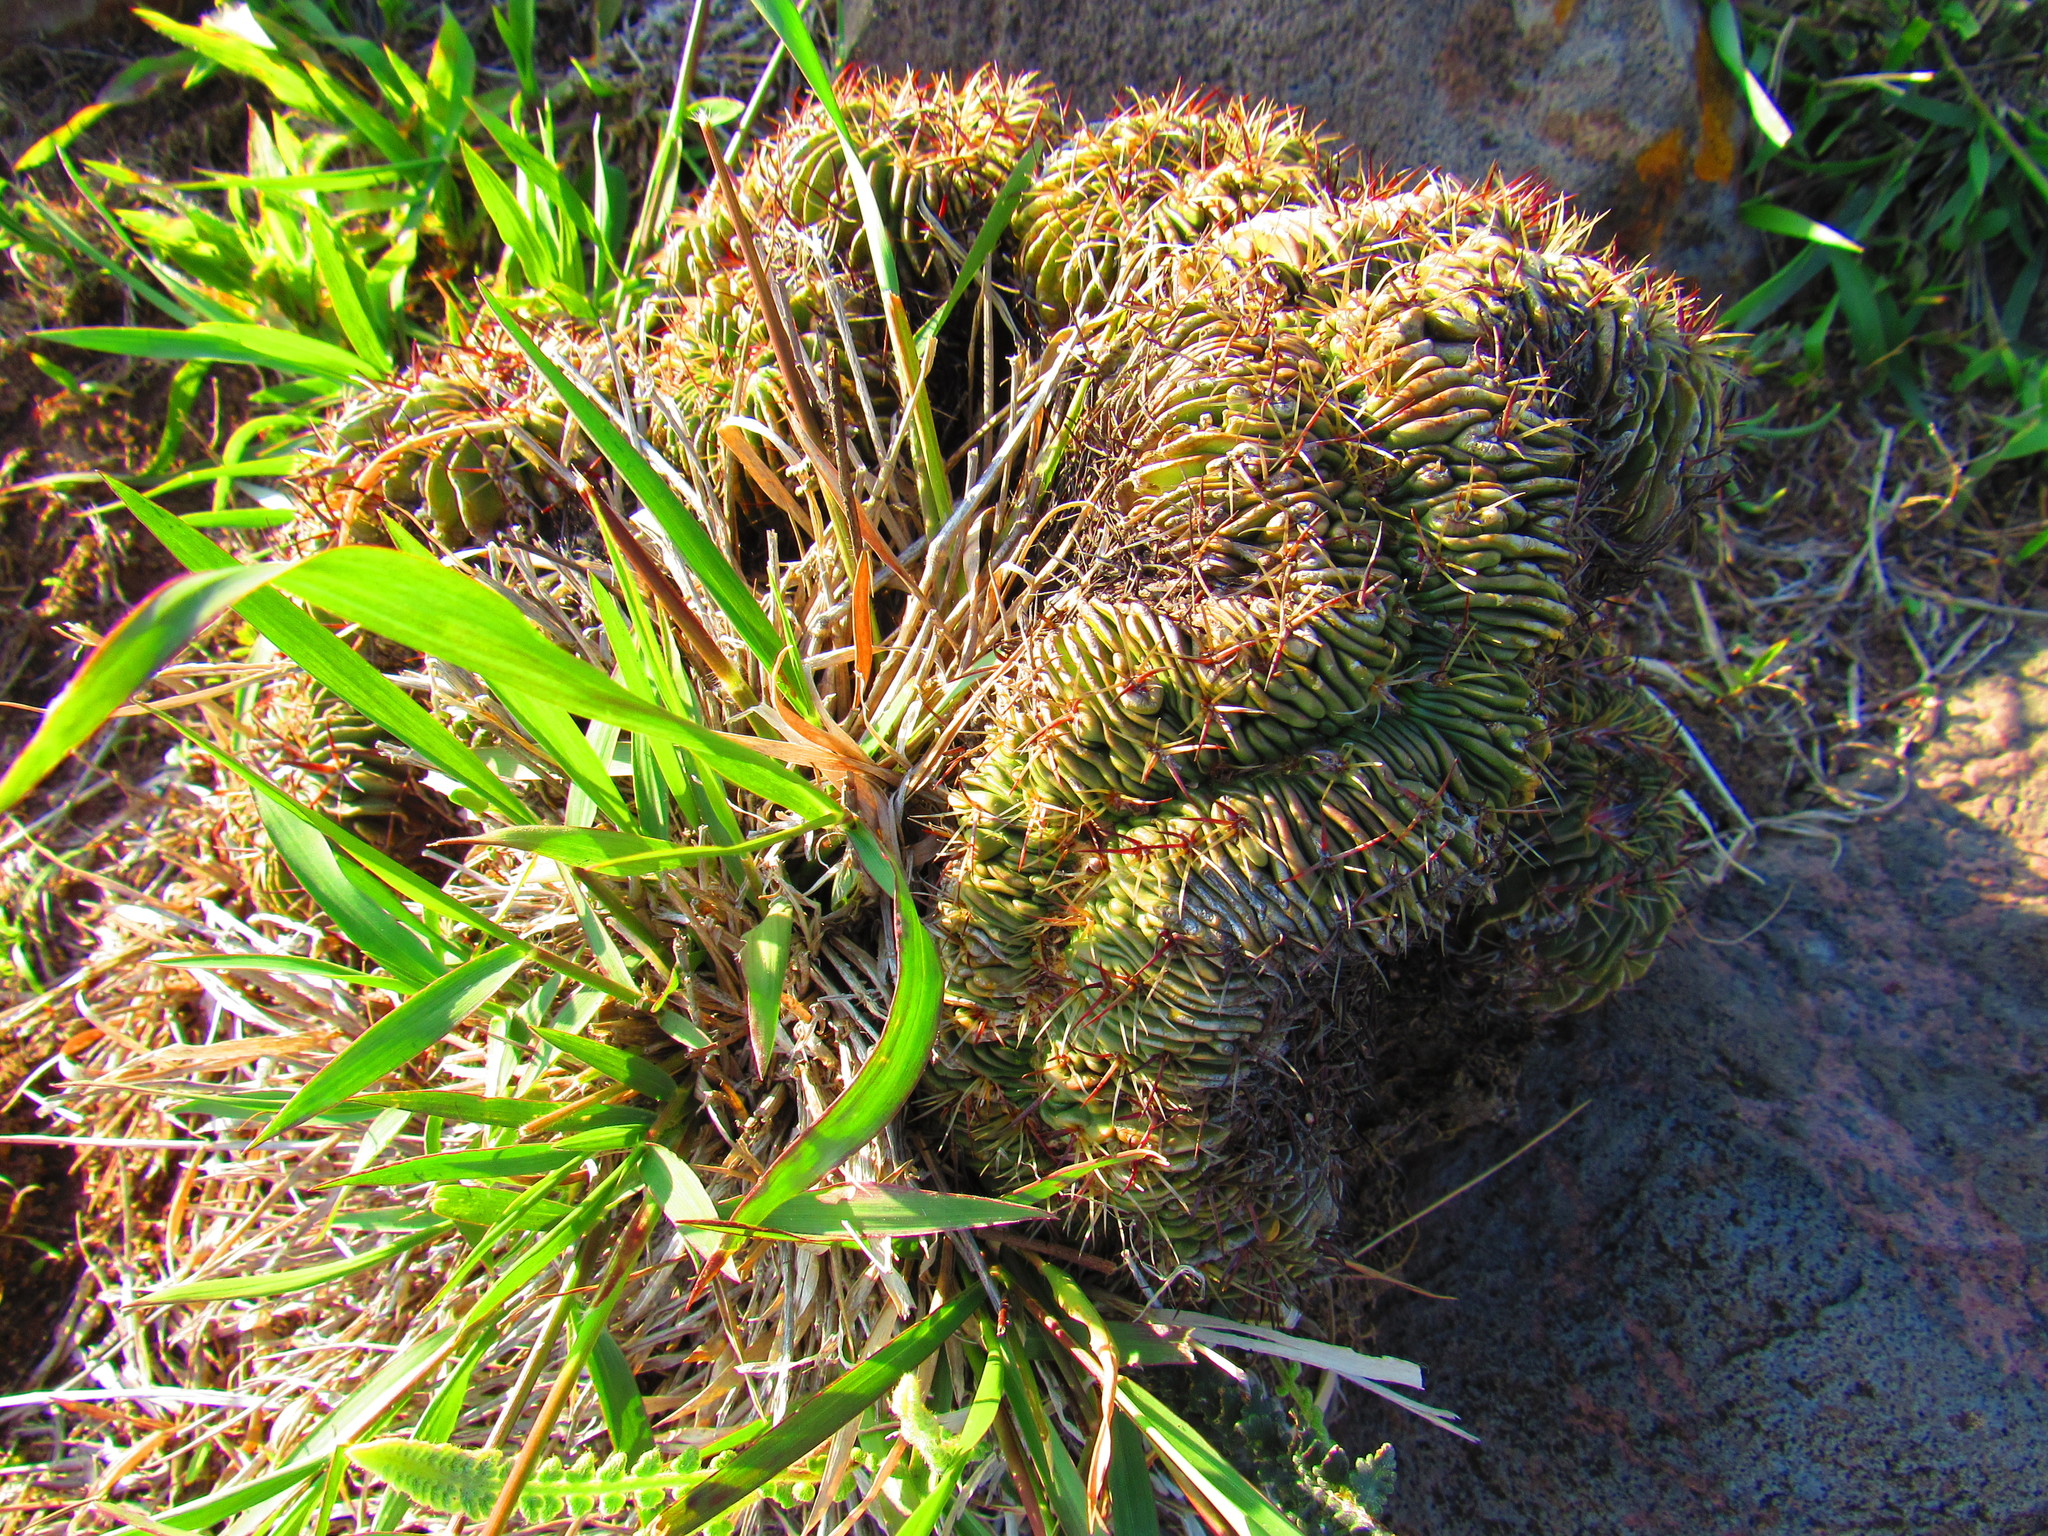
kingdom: Plantae
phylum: Tracheophyta
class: Magnoliopsida
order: Caryophyllales
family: Cactaceae
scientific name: Cactaceae
